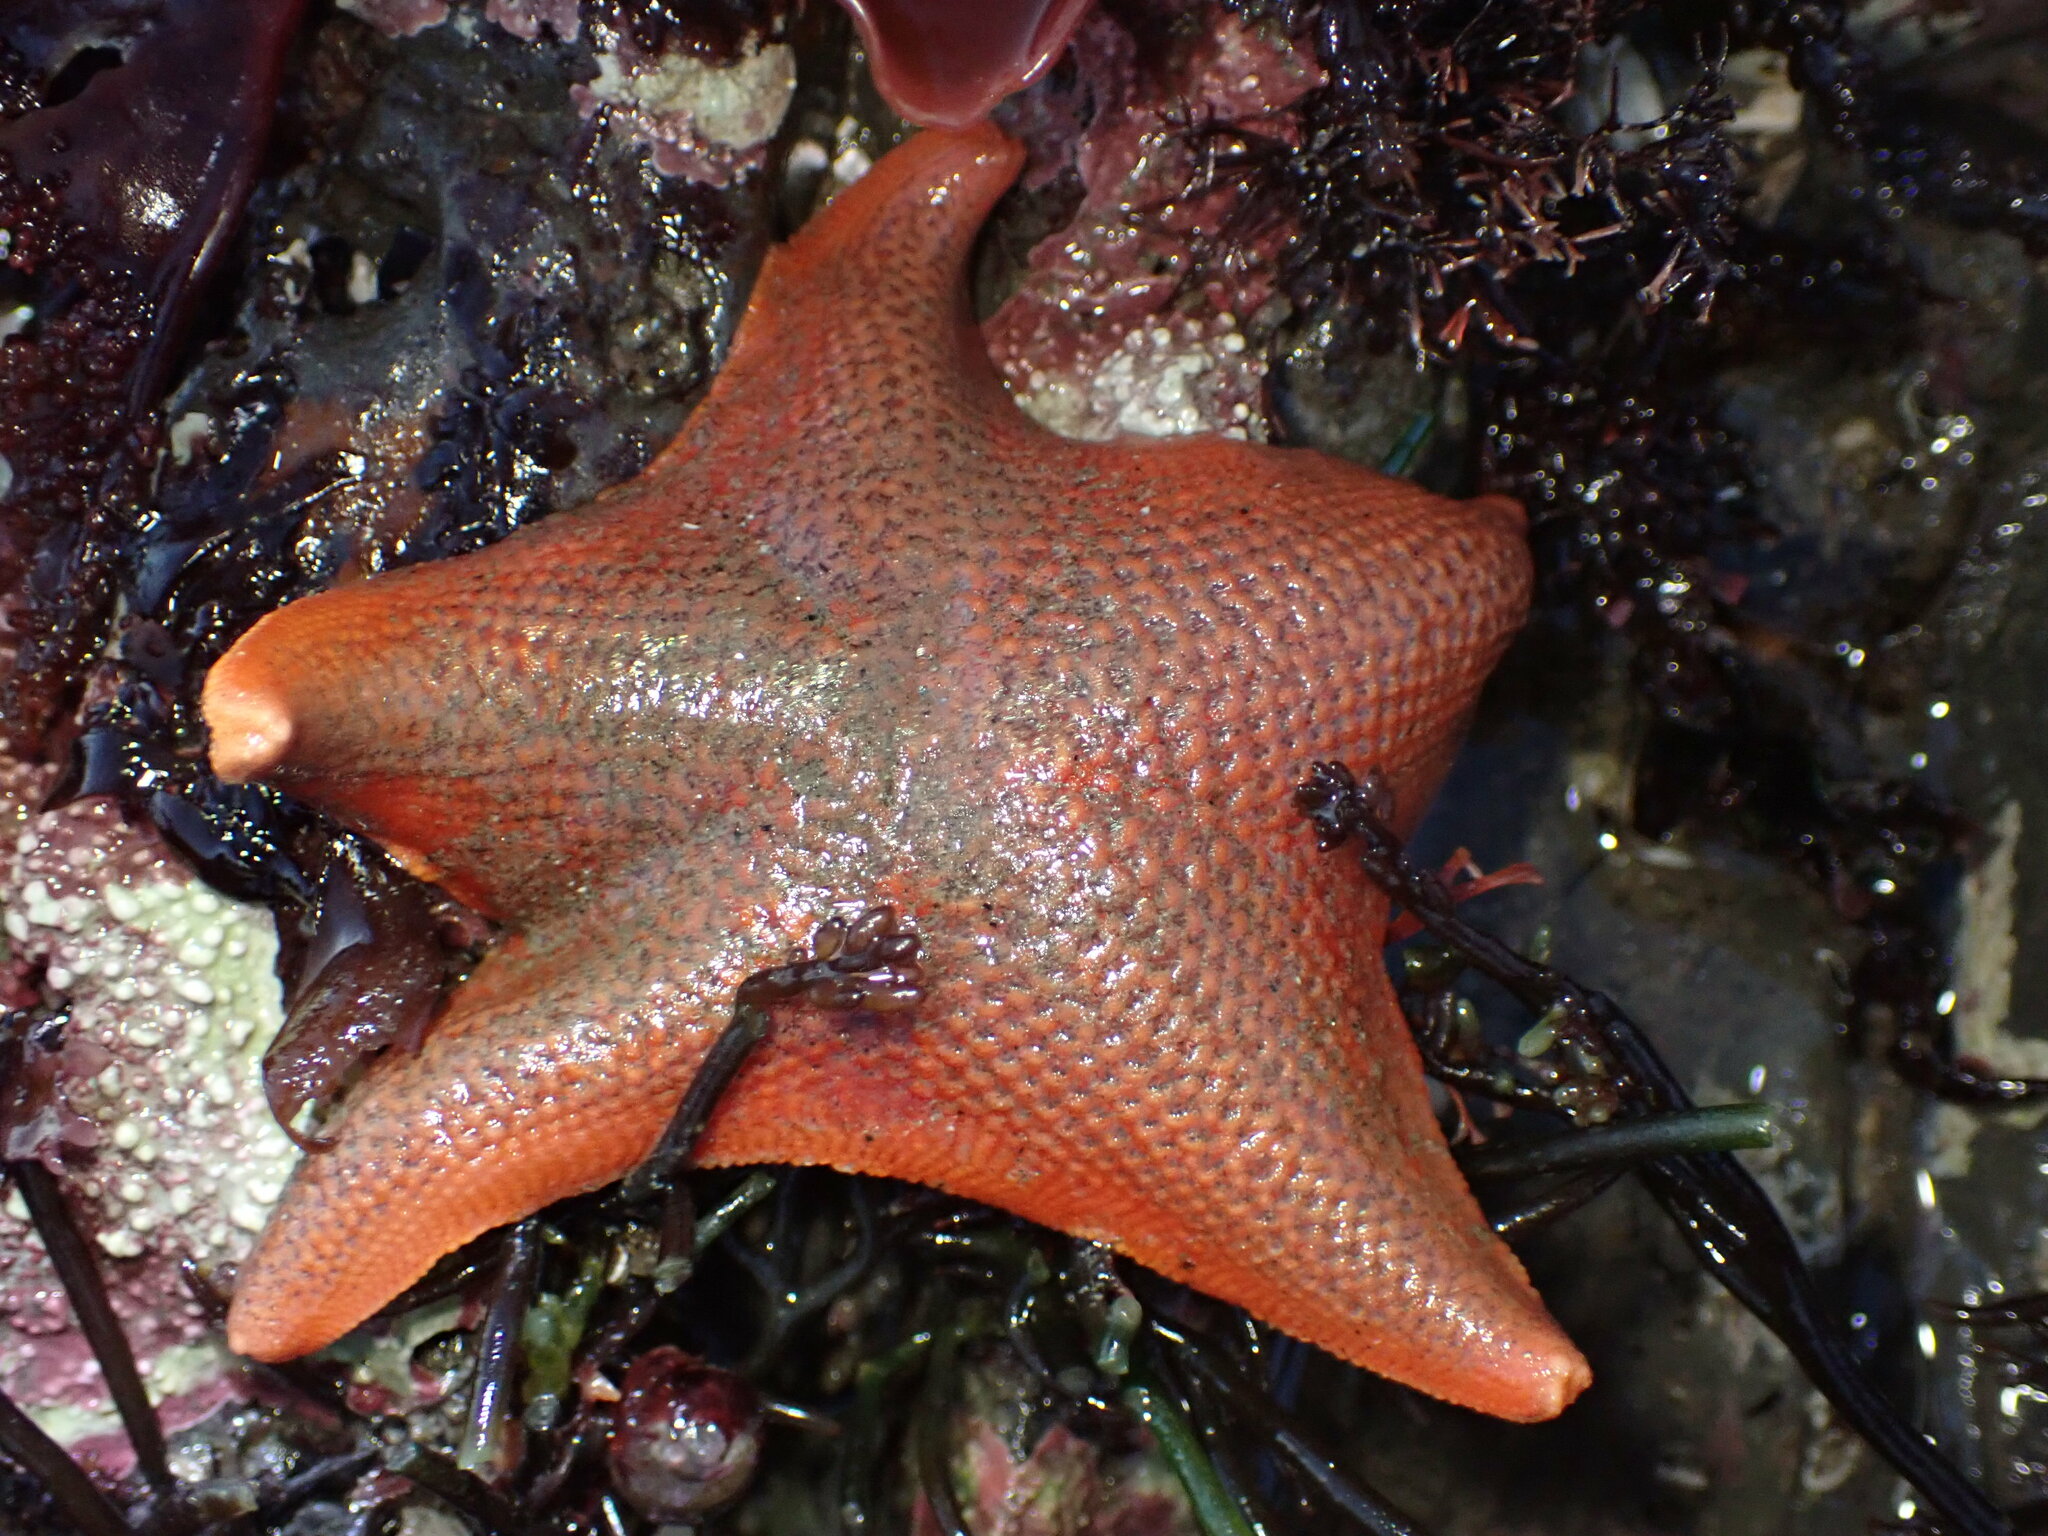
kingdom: Animalia
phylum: Echinodermata
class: Asteroidea
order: Valvatida
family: Asterinidae
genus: Patiria
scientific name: Patiria miniata
